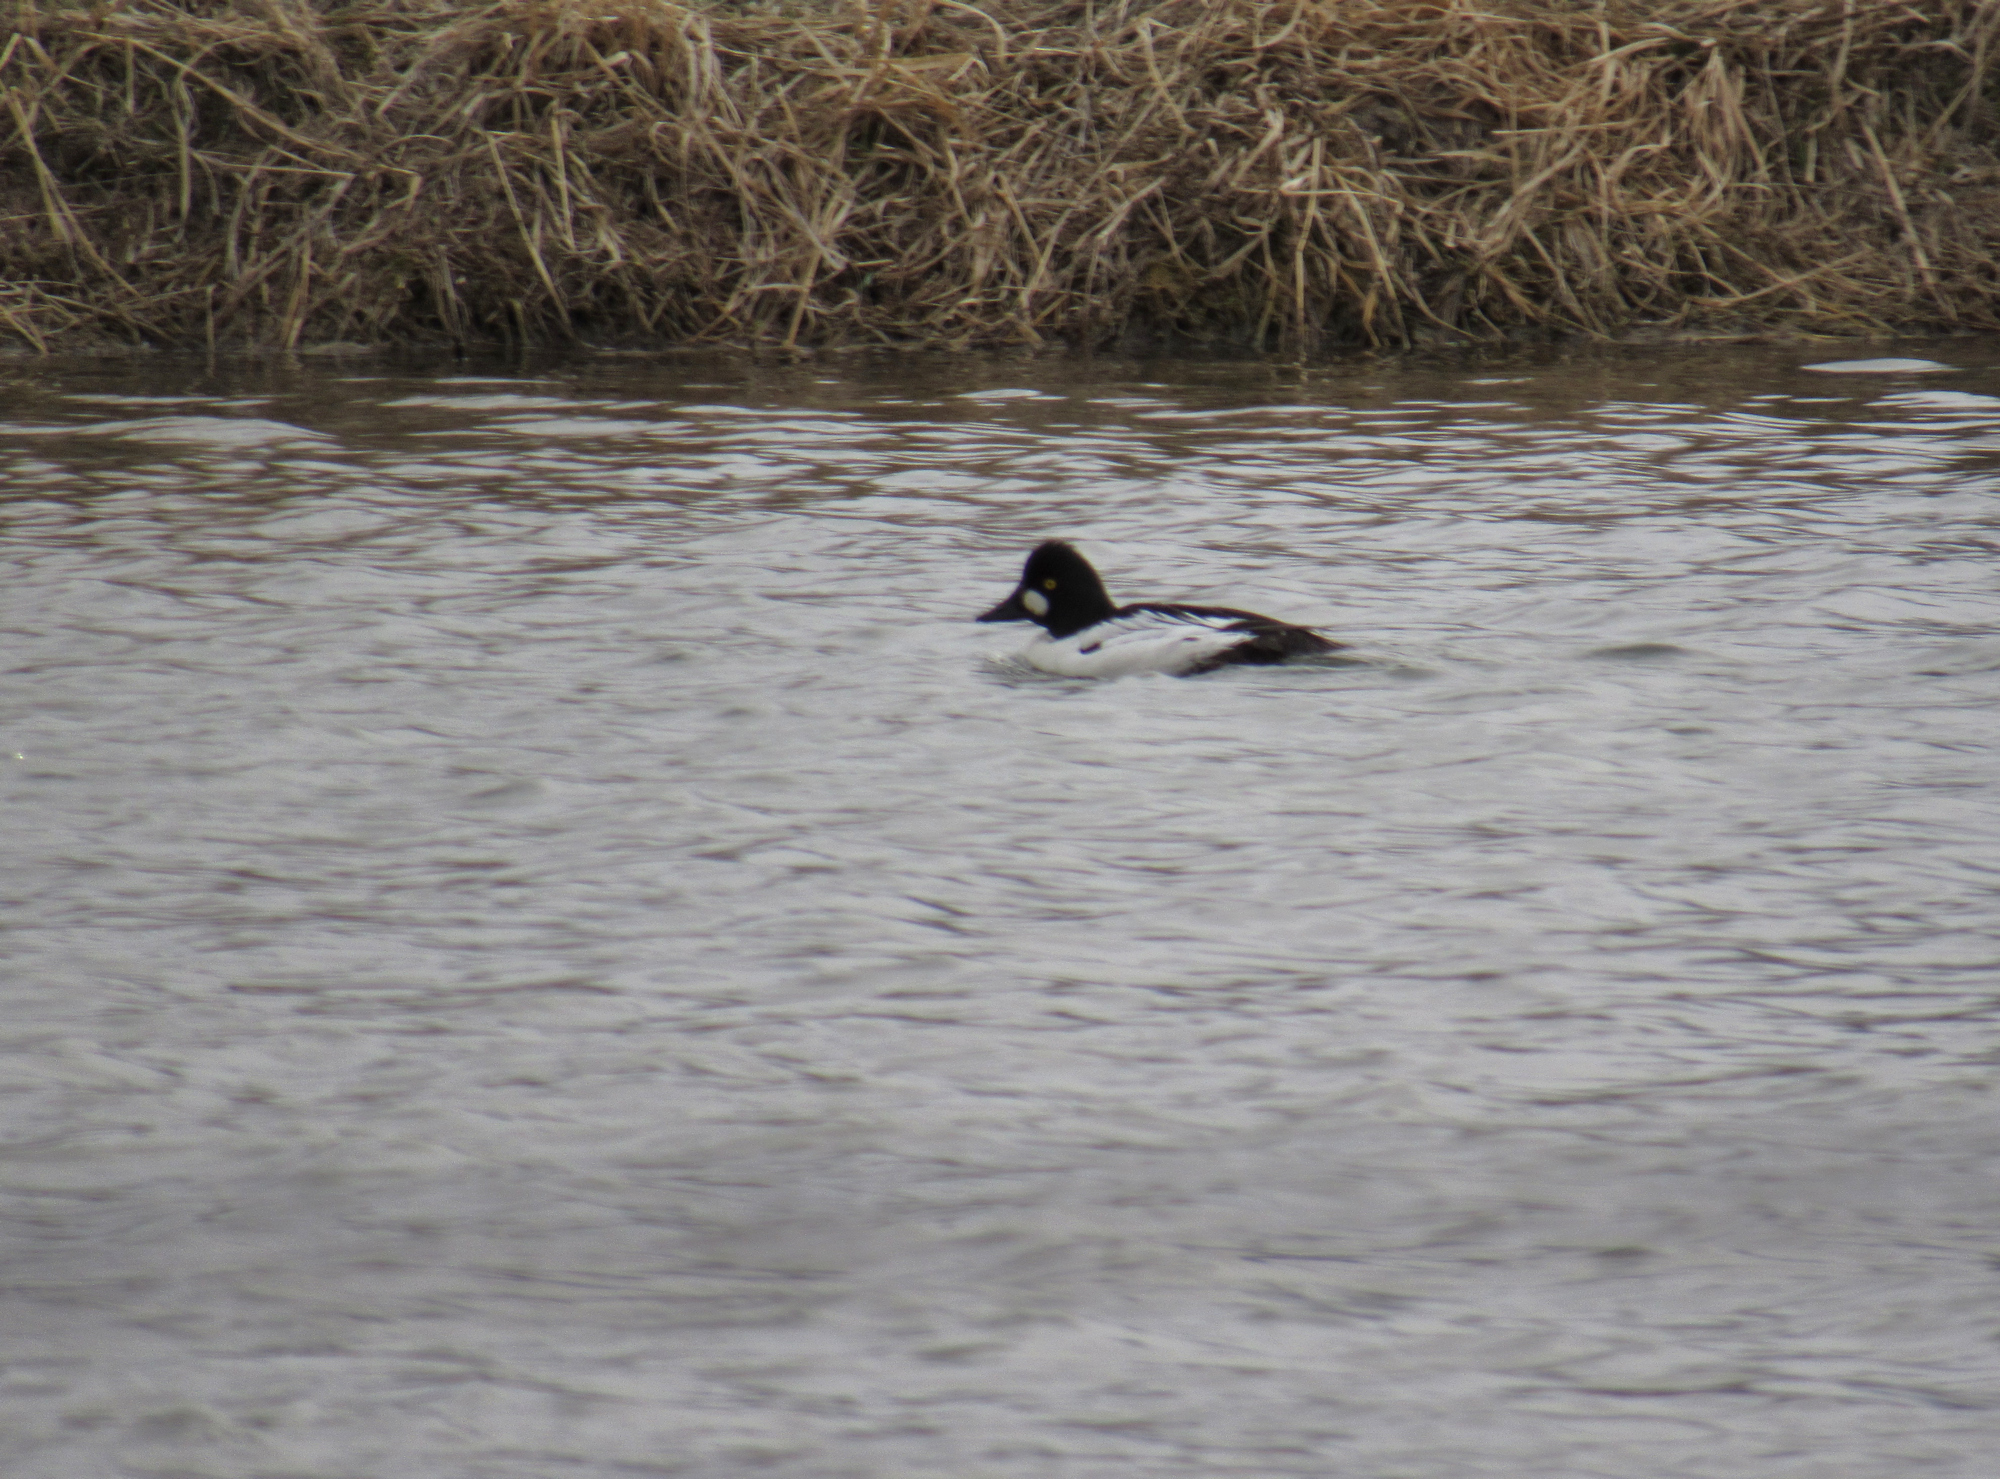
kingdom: Animalia
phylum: Chordata
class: Aves
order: Anseriformes
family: Anatidae
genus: Bucephala
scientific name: Bucephala clangula
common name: Common goldeneye
